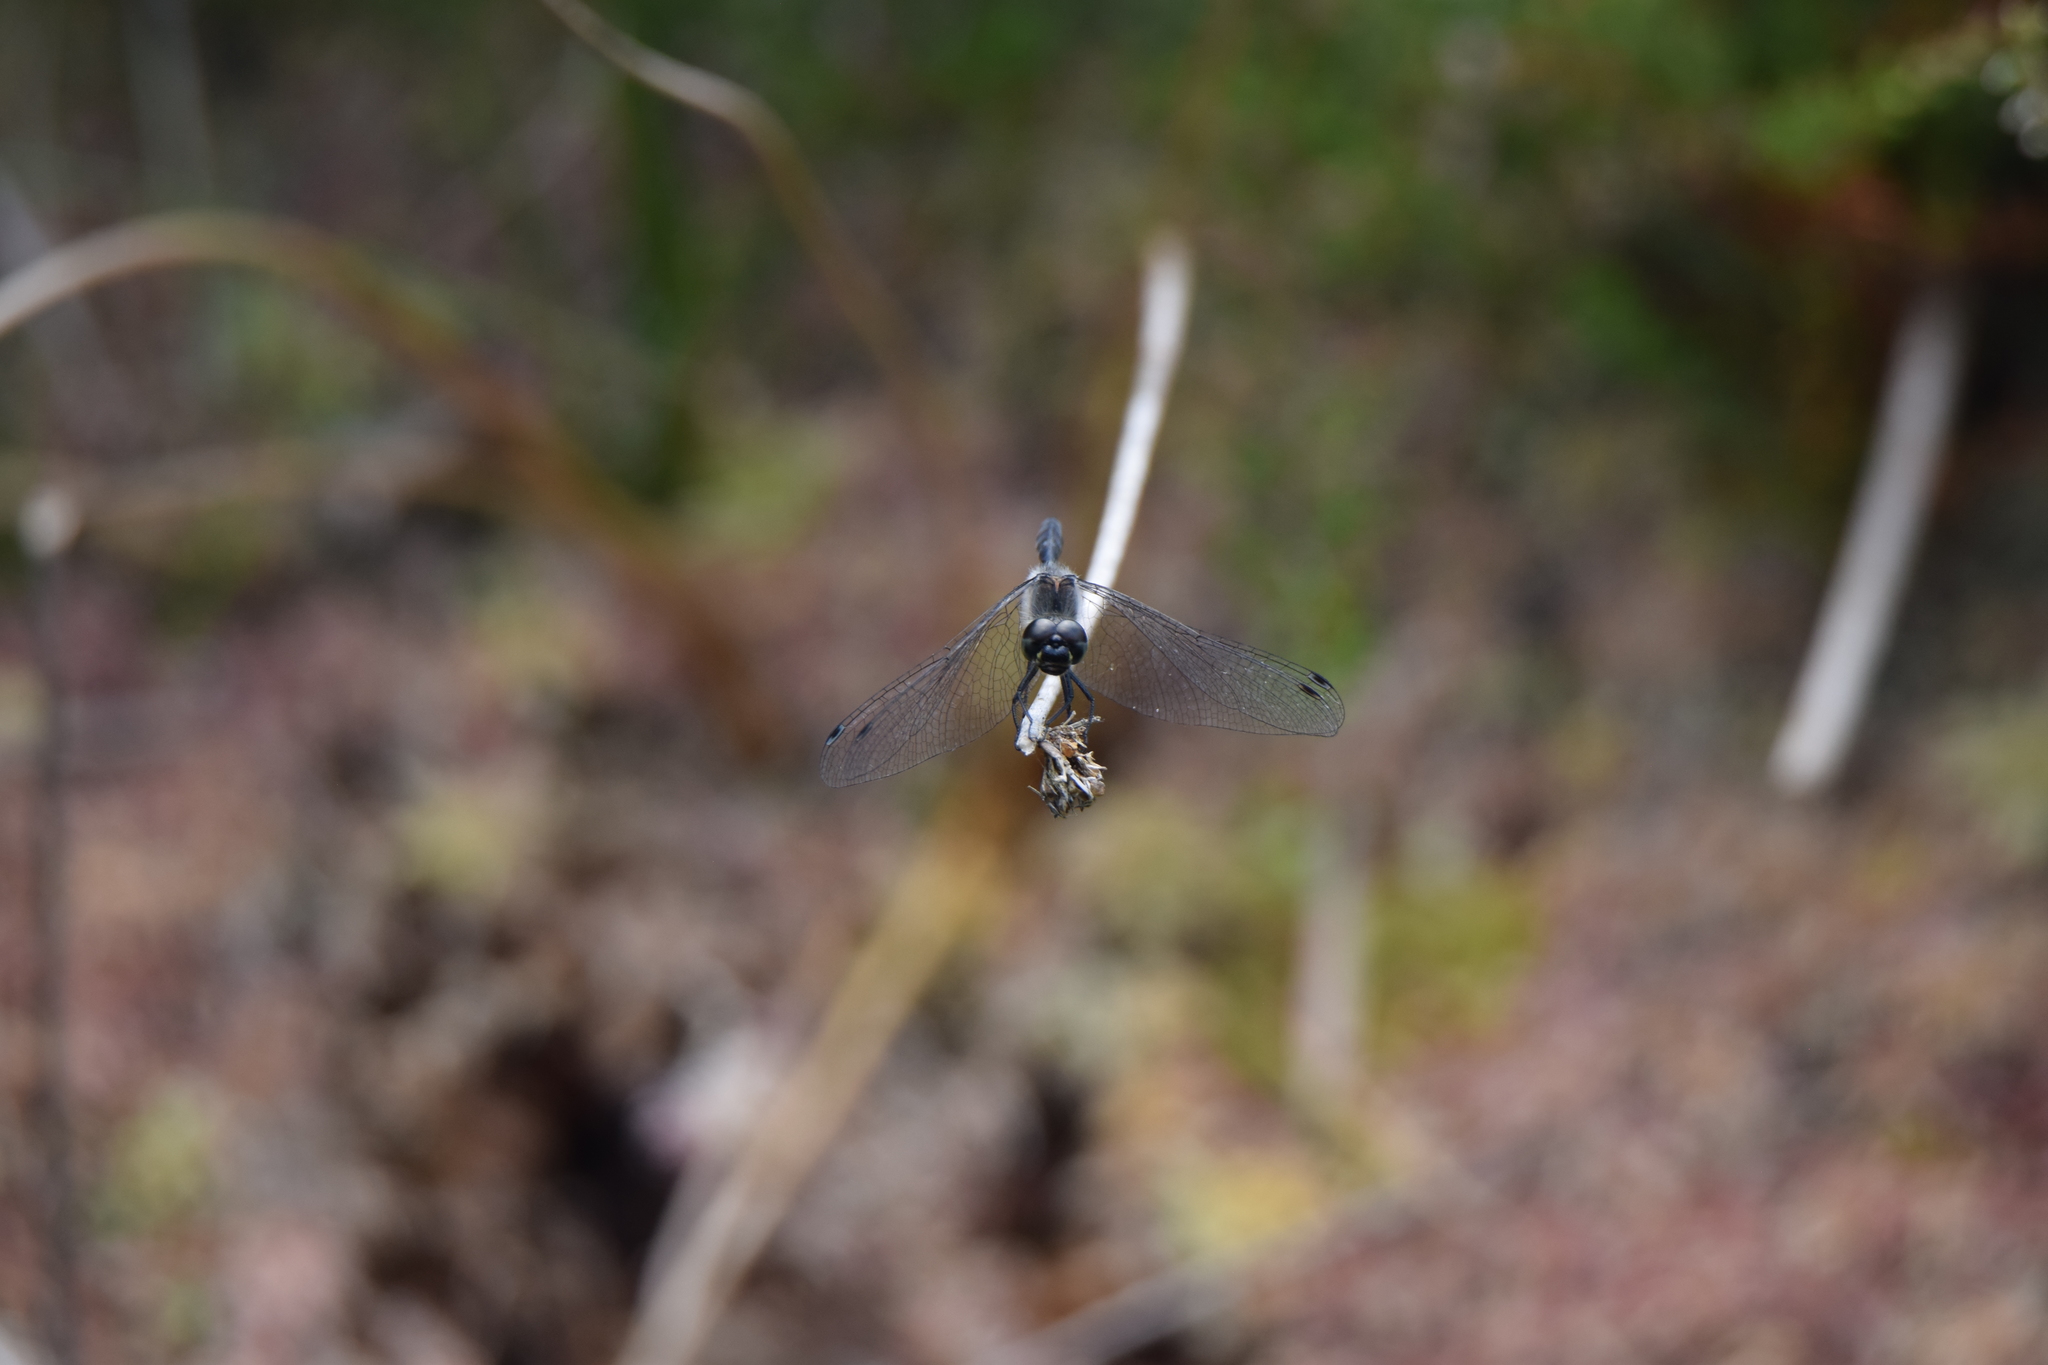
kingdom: Animalia
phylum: Arthropoda
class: Insecta
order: Odonata
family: Libellulidae
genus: Sympetrum
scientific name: Sympetrum danae
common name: Black darter
